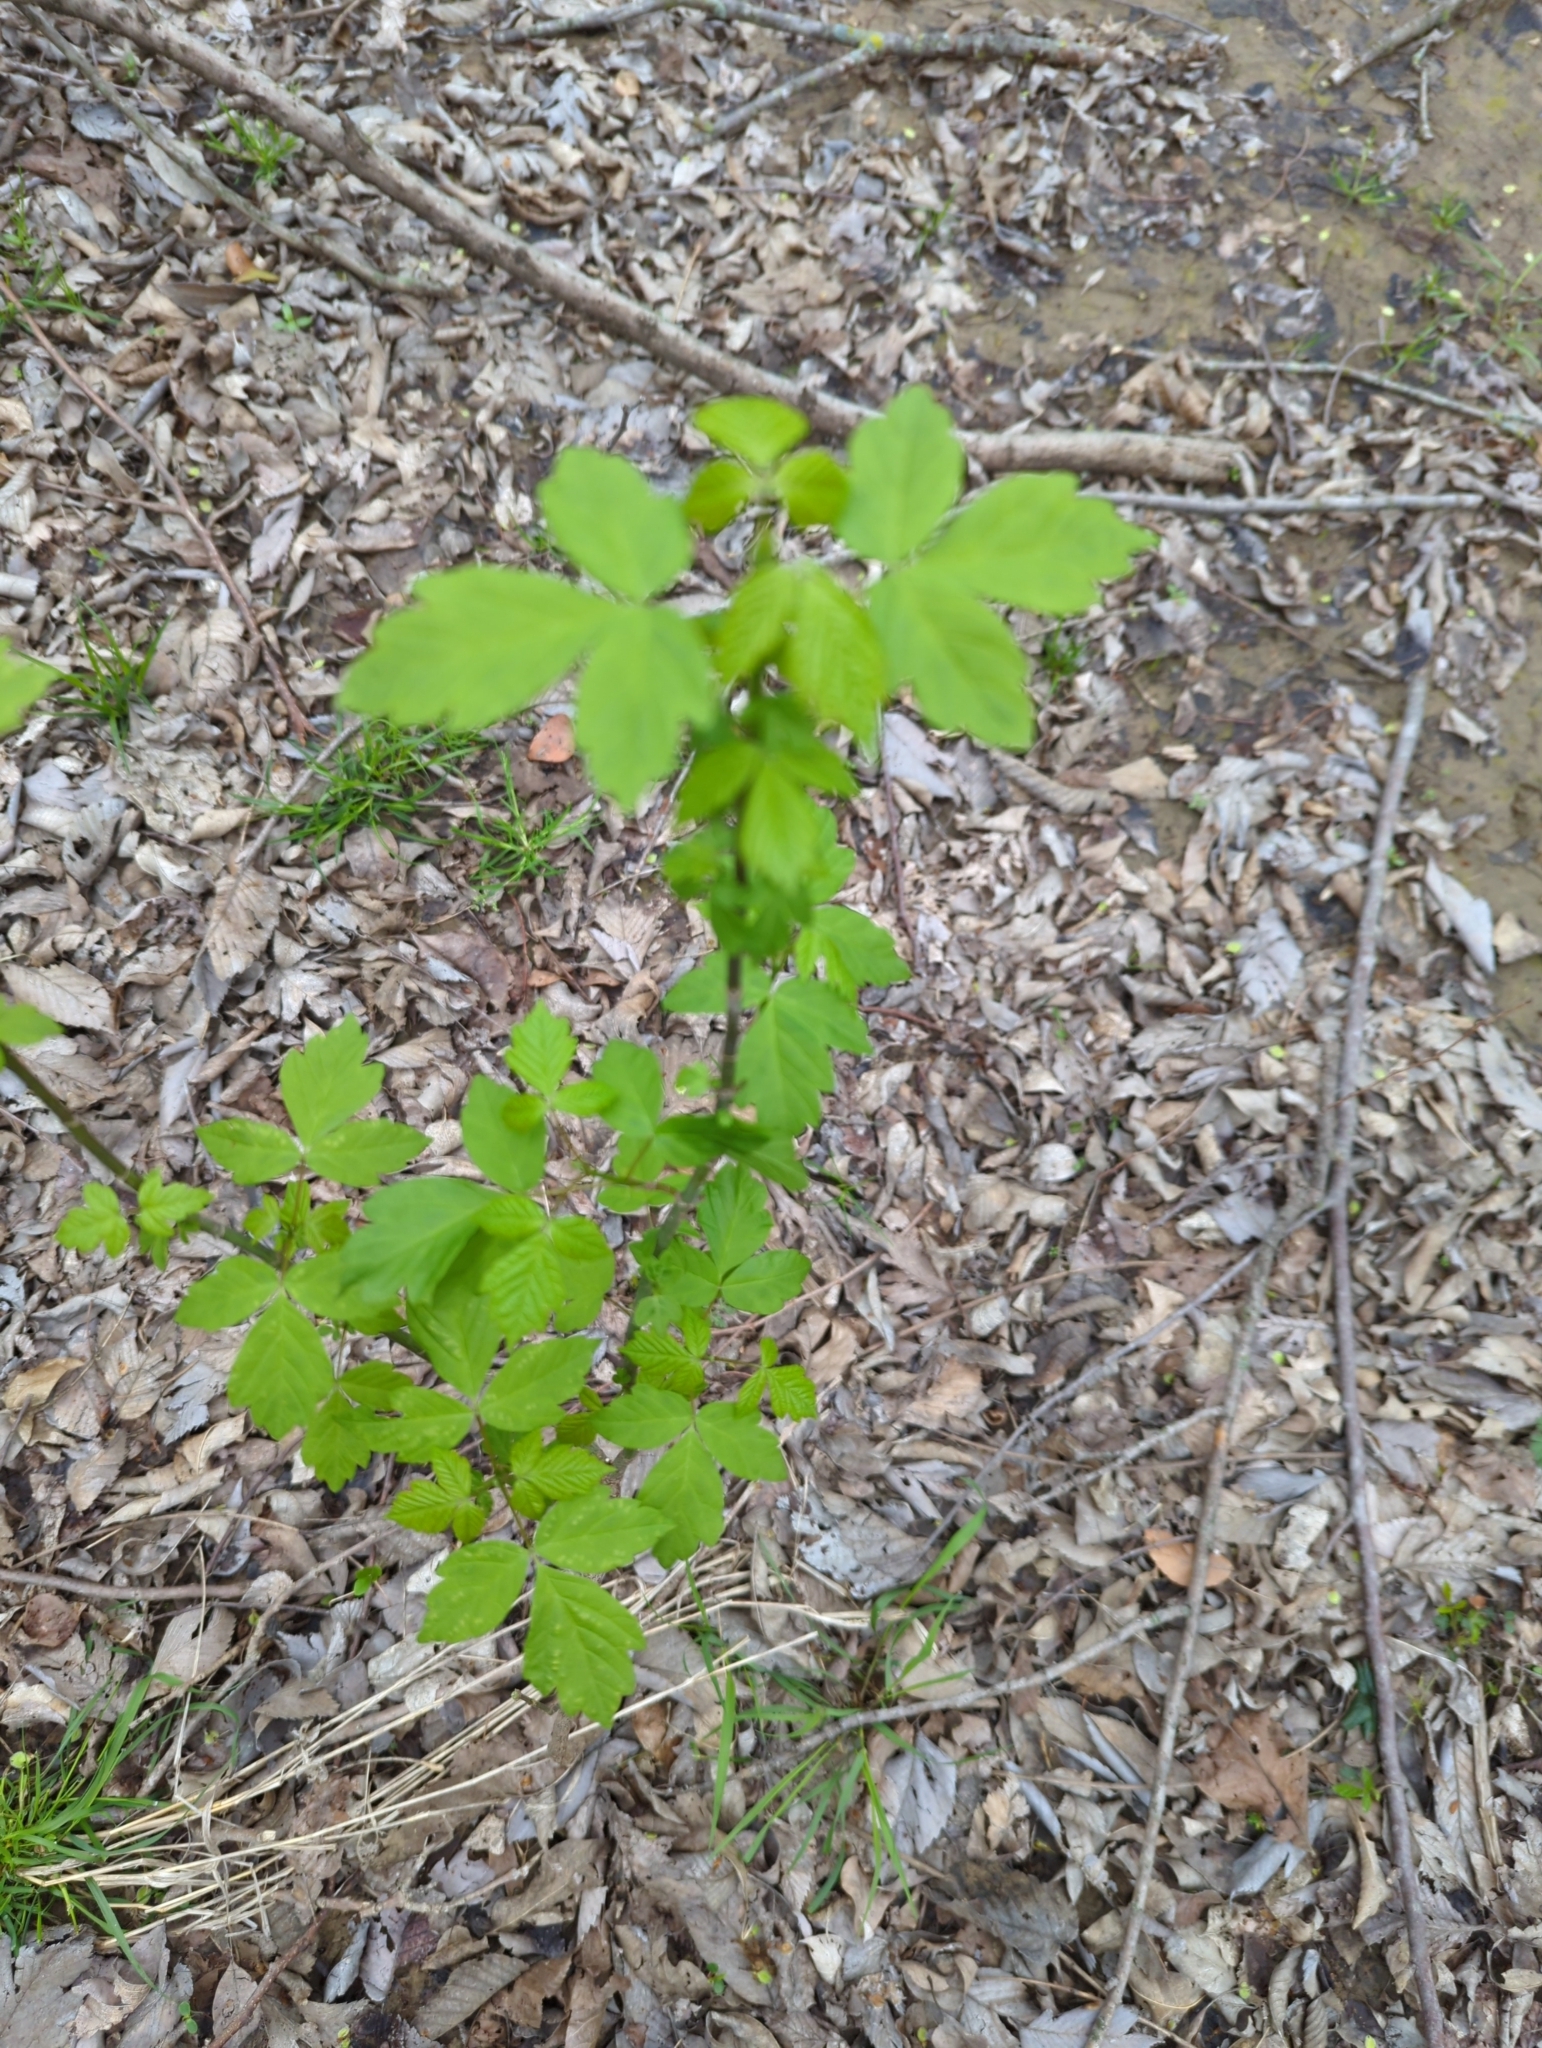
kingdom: Plantae
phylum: Tracheophyta
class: Magnoliopsida
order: Sapindales
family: Sapindaceae
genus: Acer
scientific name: Acer negundo
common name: Ashleaf maple
